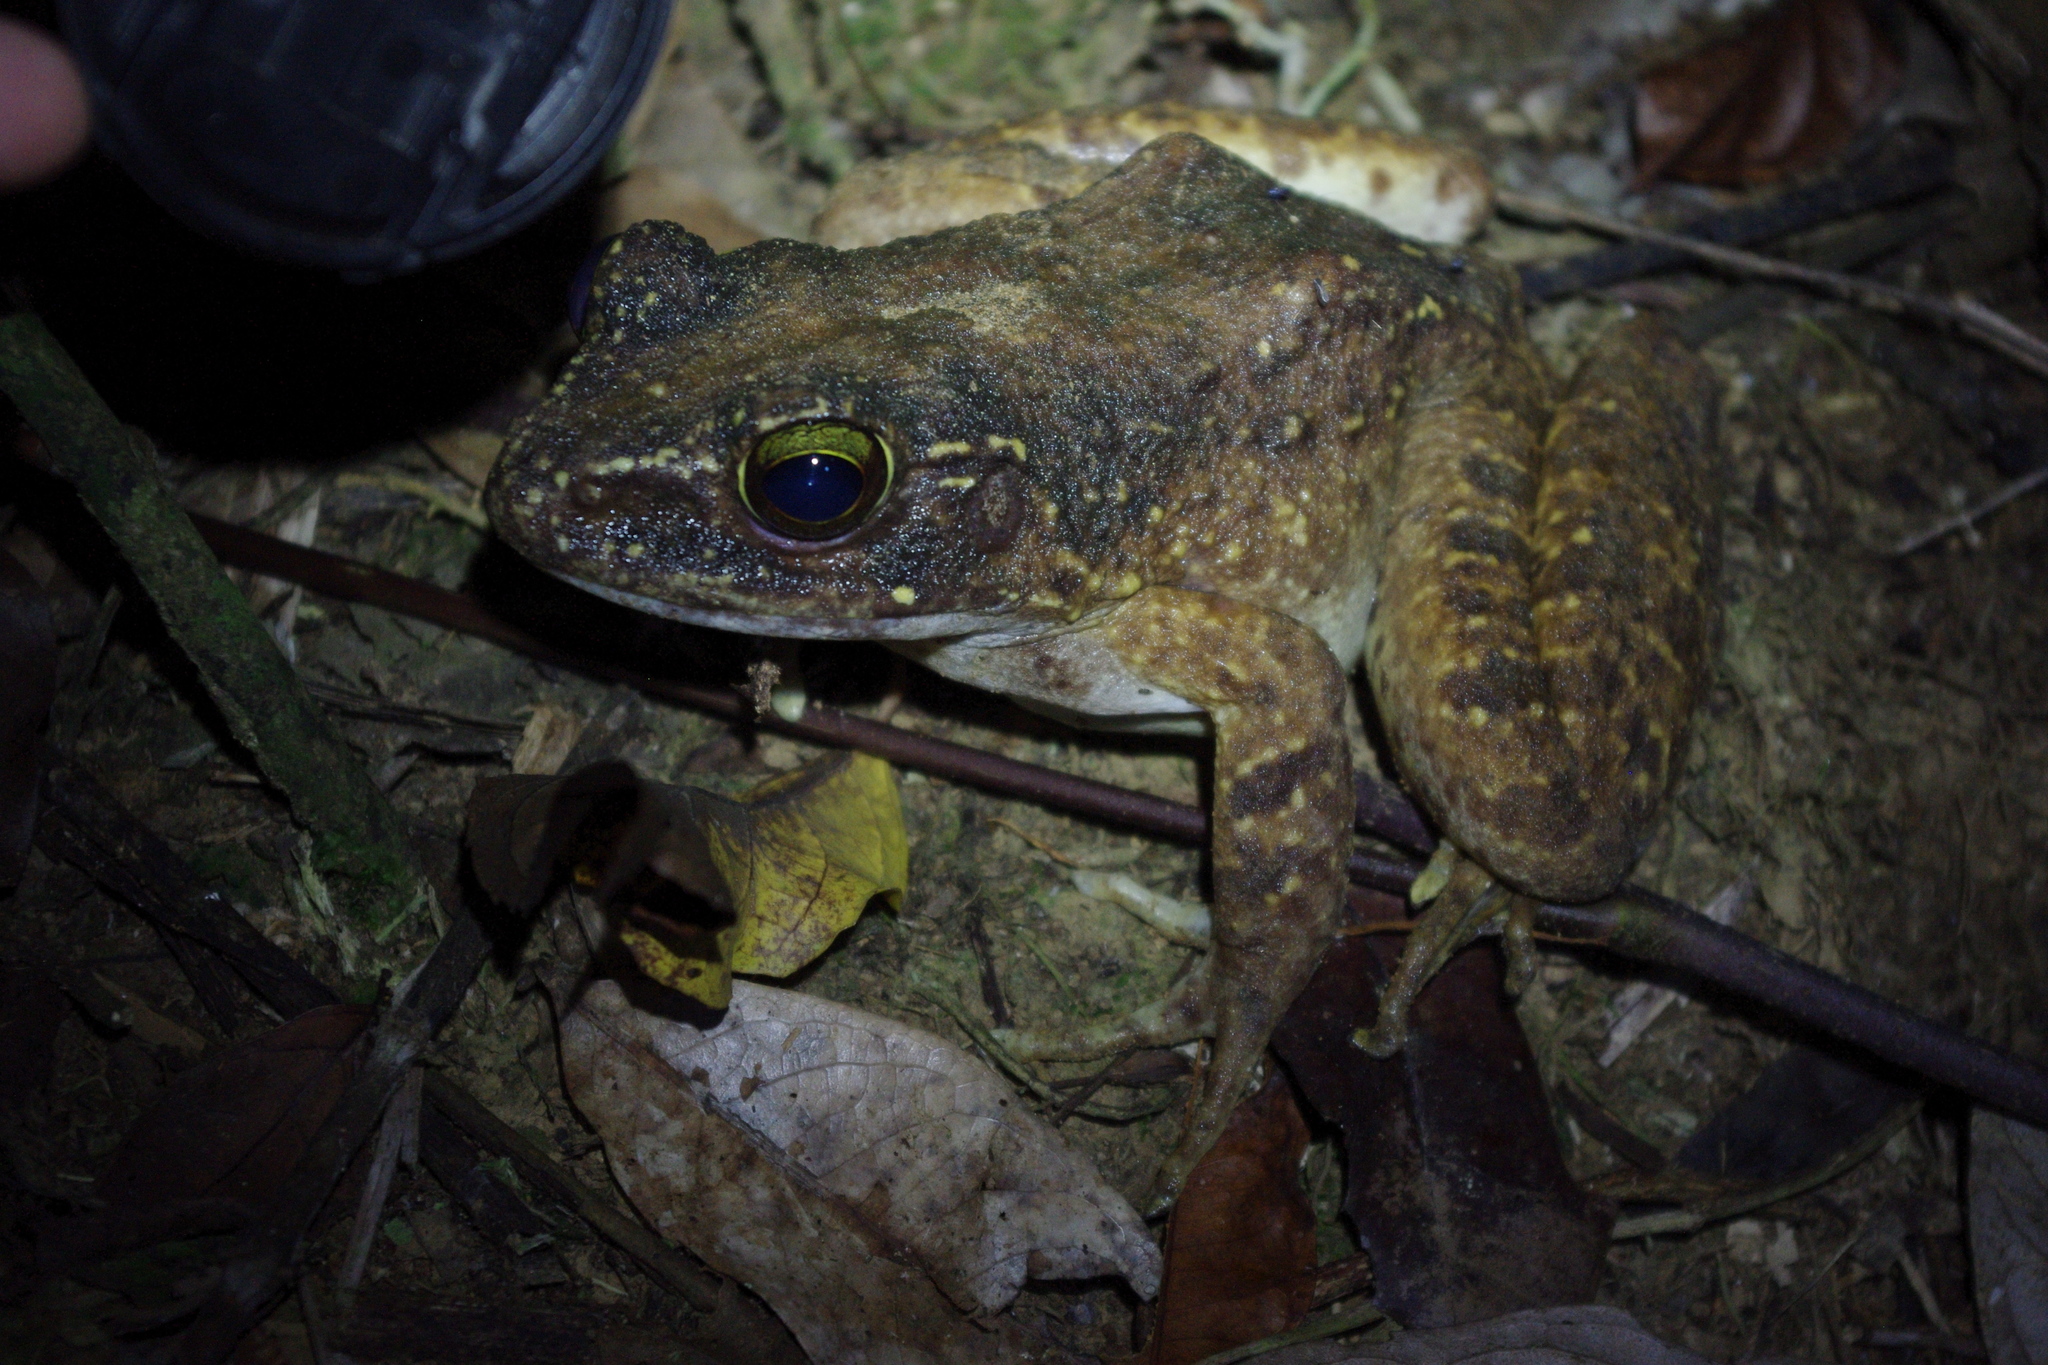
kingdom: Animalia
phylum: Chordata
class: Amphibia
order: Anura
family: Ranidae
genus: Papurana
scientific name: Papurana arfaki
